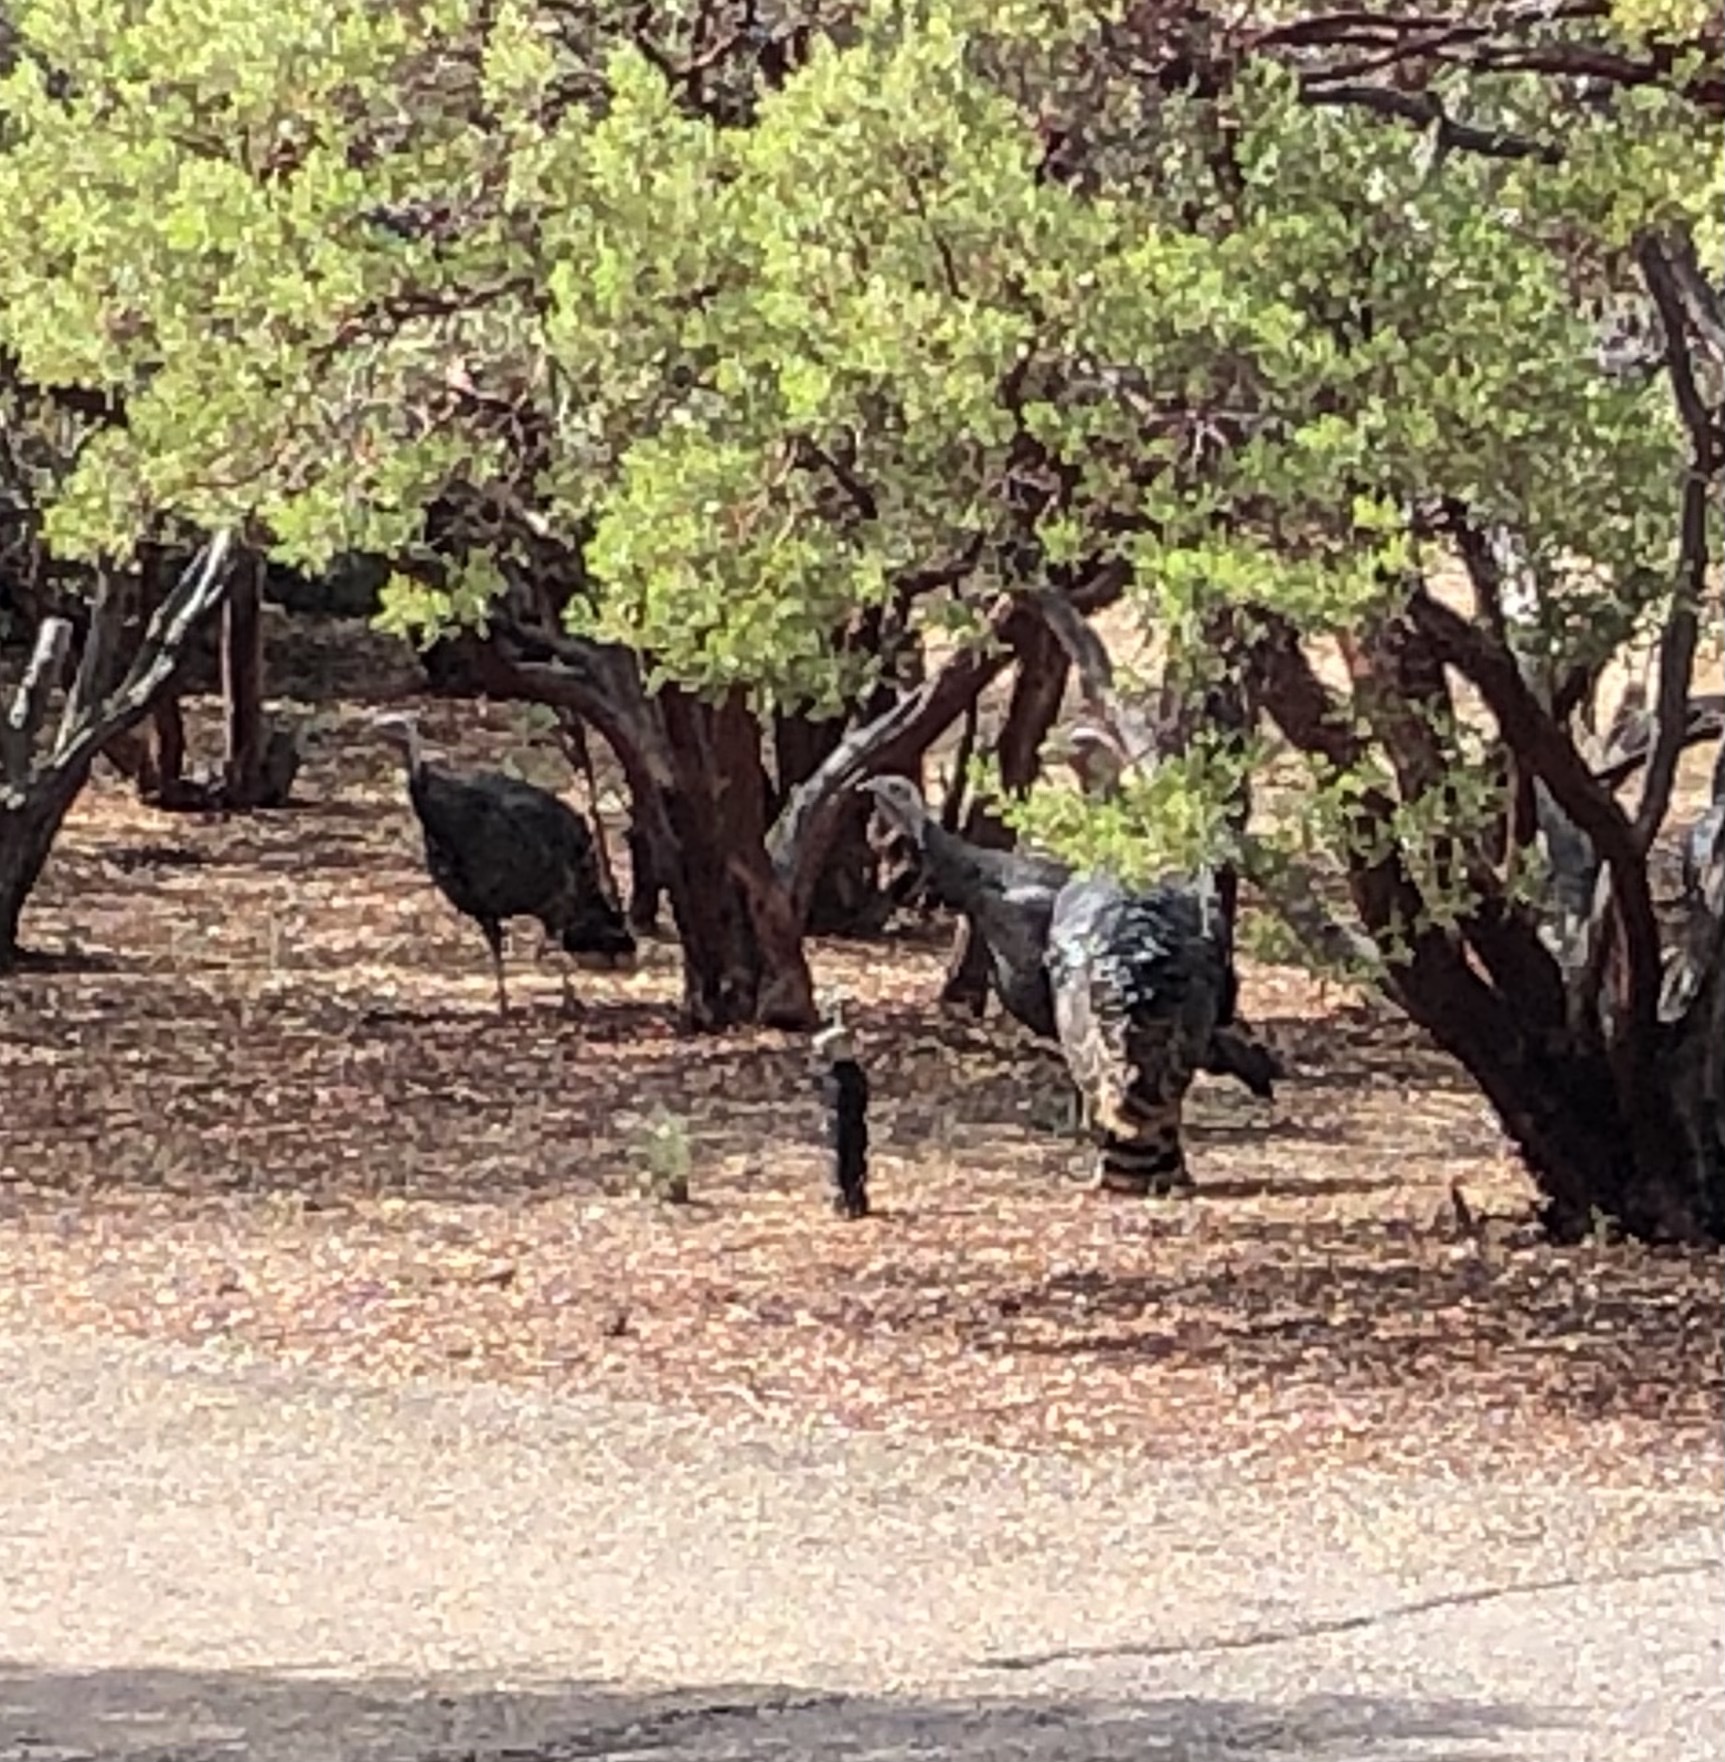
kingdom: Animalia
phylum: Chordata
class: Aves
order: Galliformes
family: Phasianidae
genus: Meleagris
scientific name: Meleagris gallopavo
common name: Wild turkey
